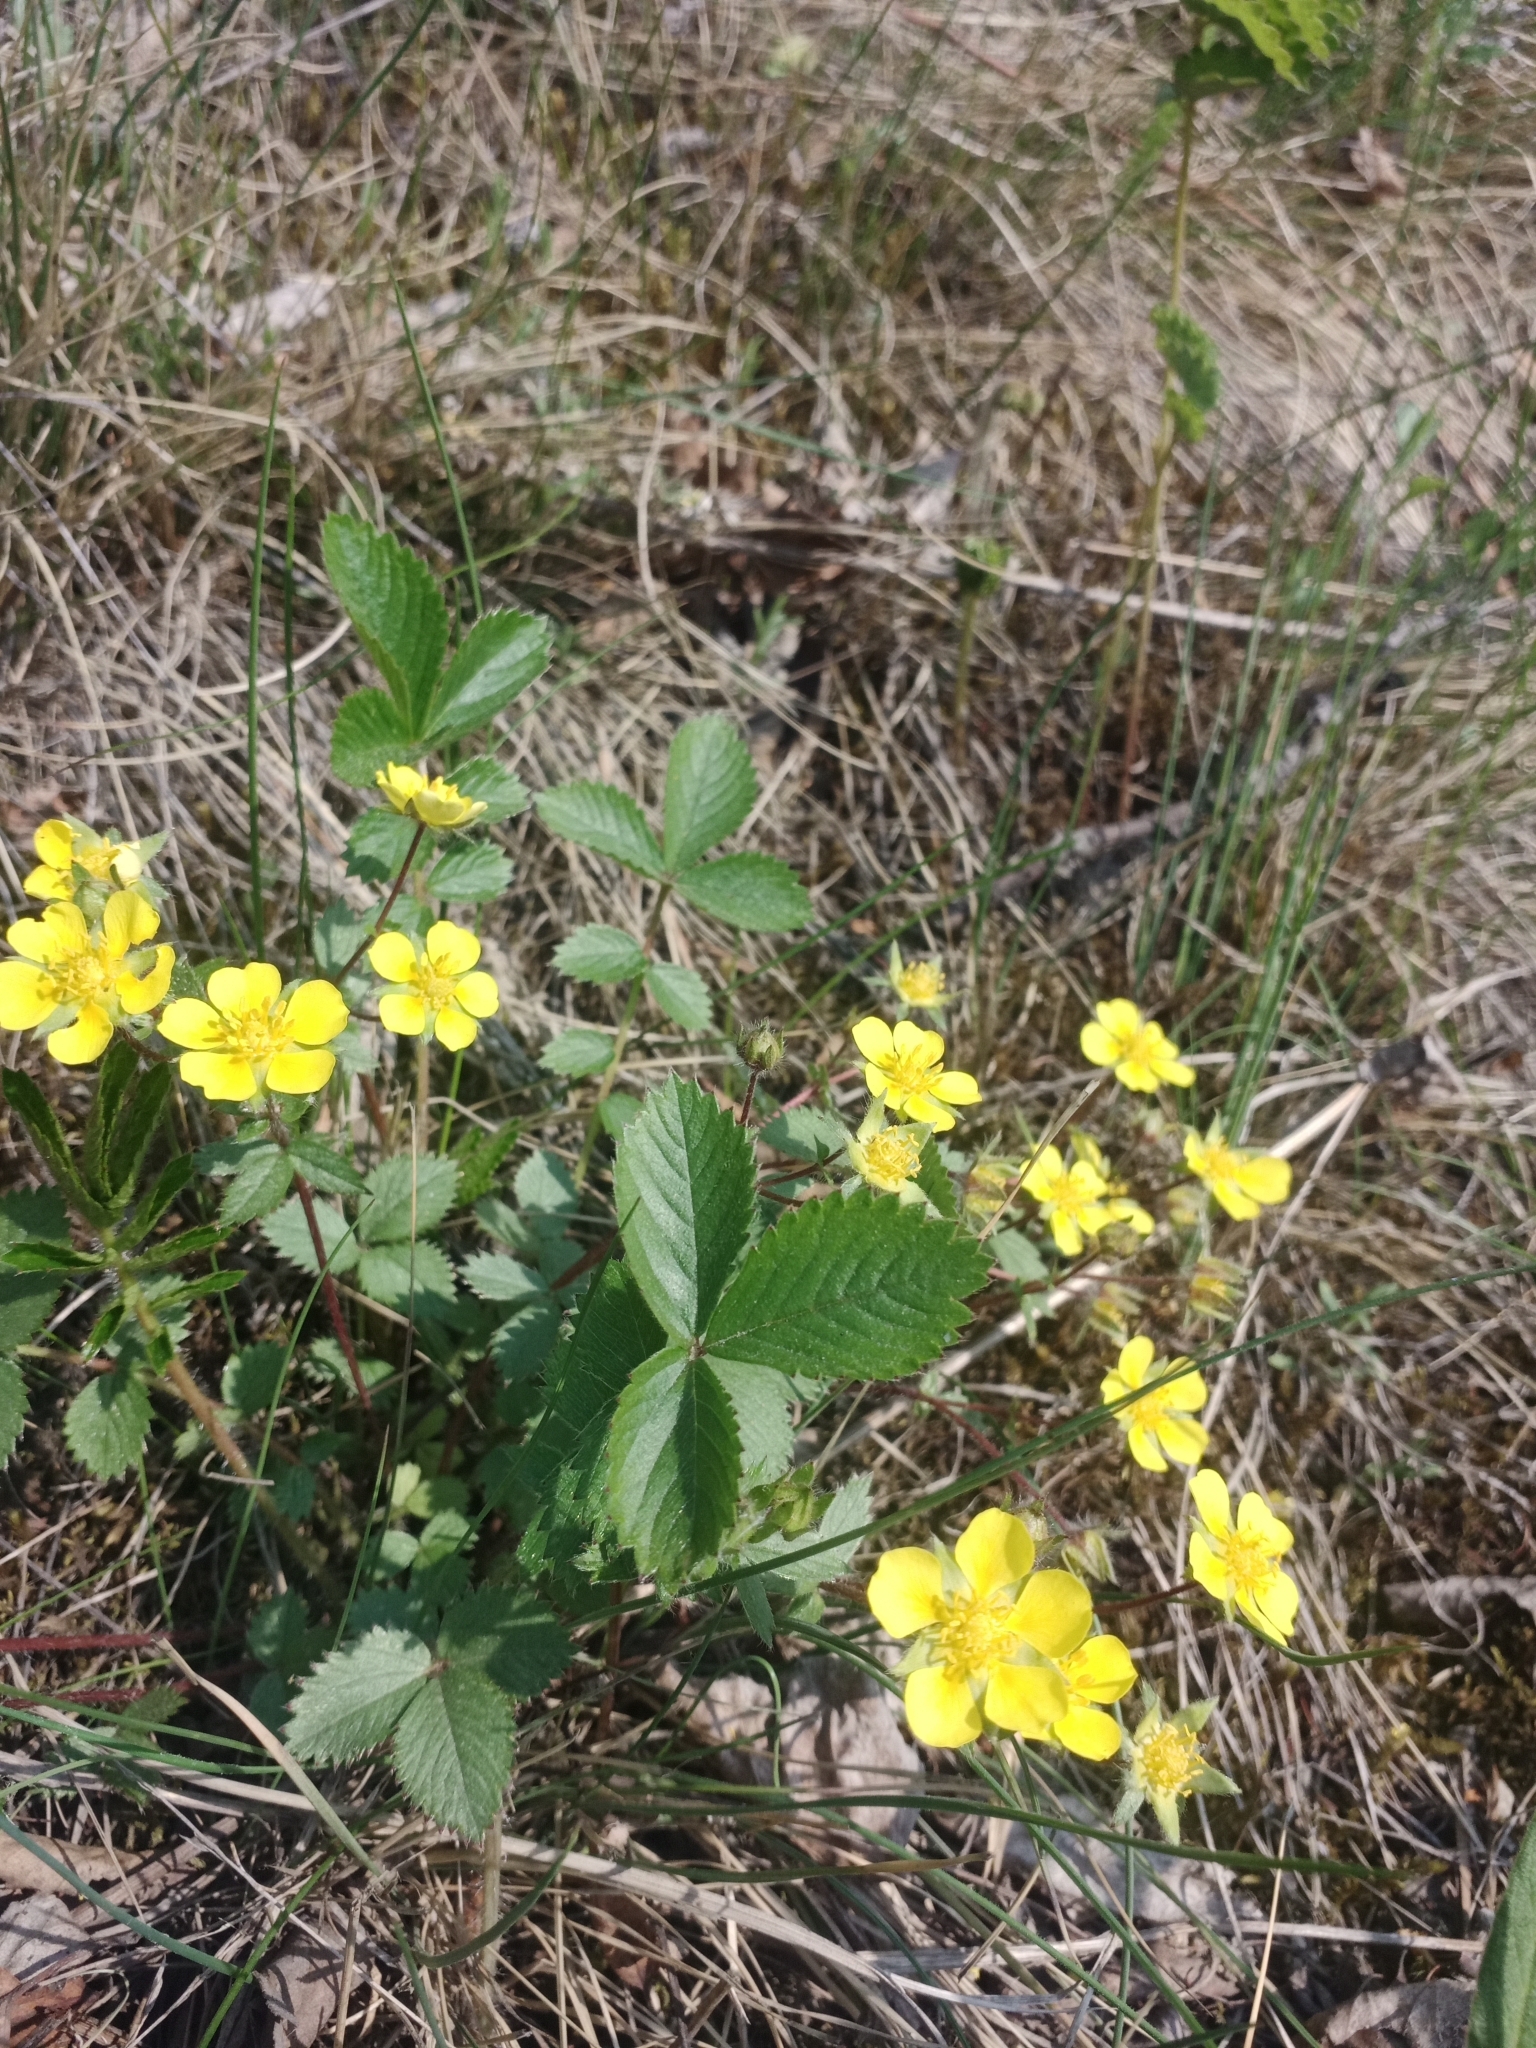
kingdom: Plantae
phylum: Tracheophyta
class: Magnoliopsida
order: Rosales
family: Rosaceae
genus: Potentilla
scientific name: Potentilla fragarioides
